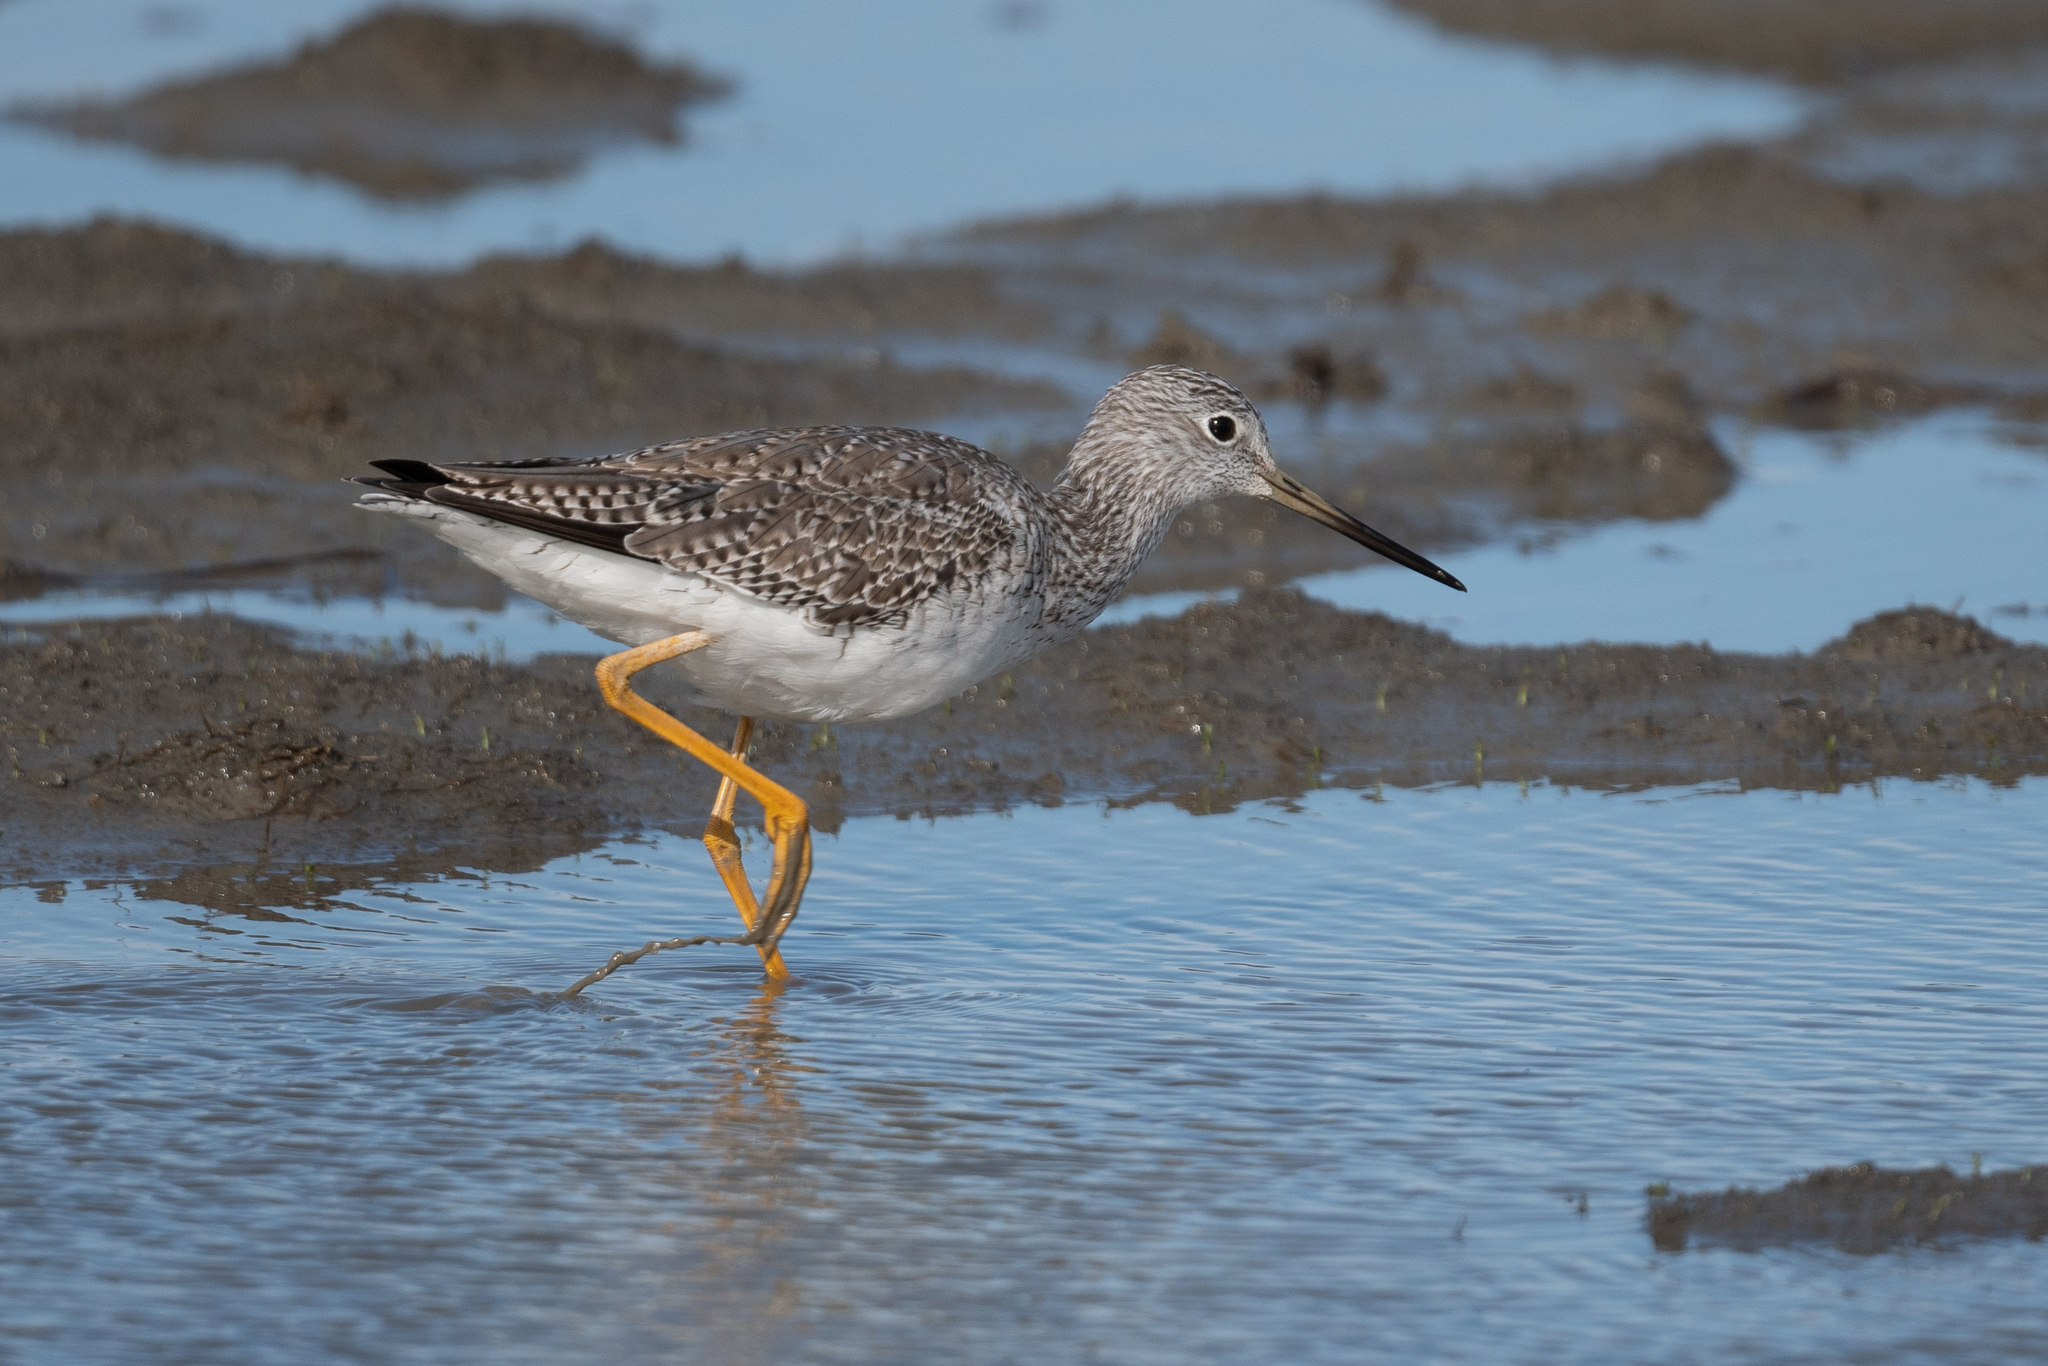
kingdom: Animalia
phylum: Chordata
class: Aves
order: Charadriiformes
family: Scolopacidae
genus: Tringa
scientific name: Tringa melanoleuca
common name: Greater yellowlegs
